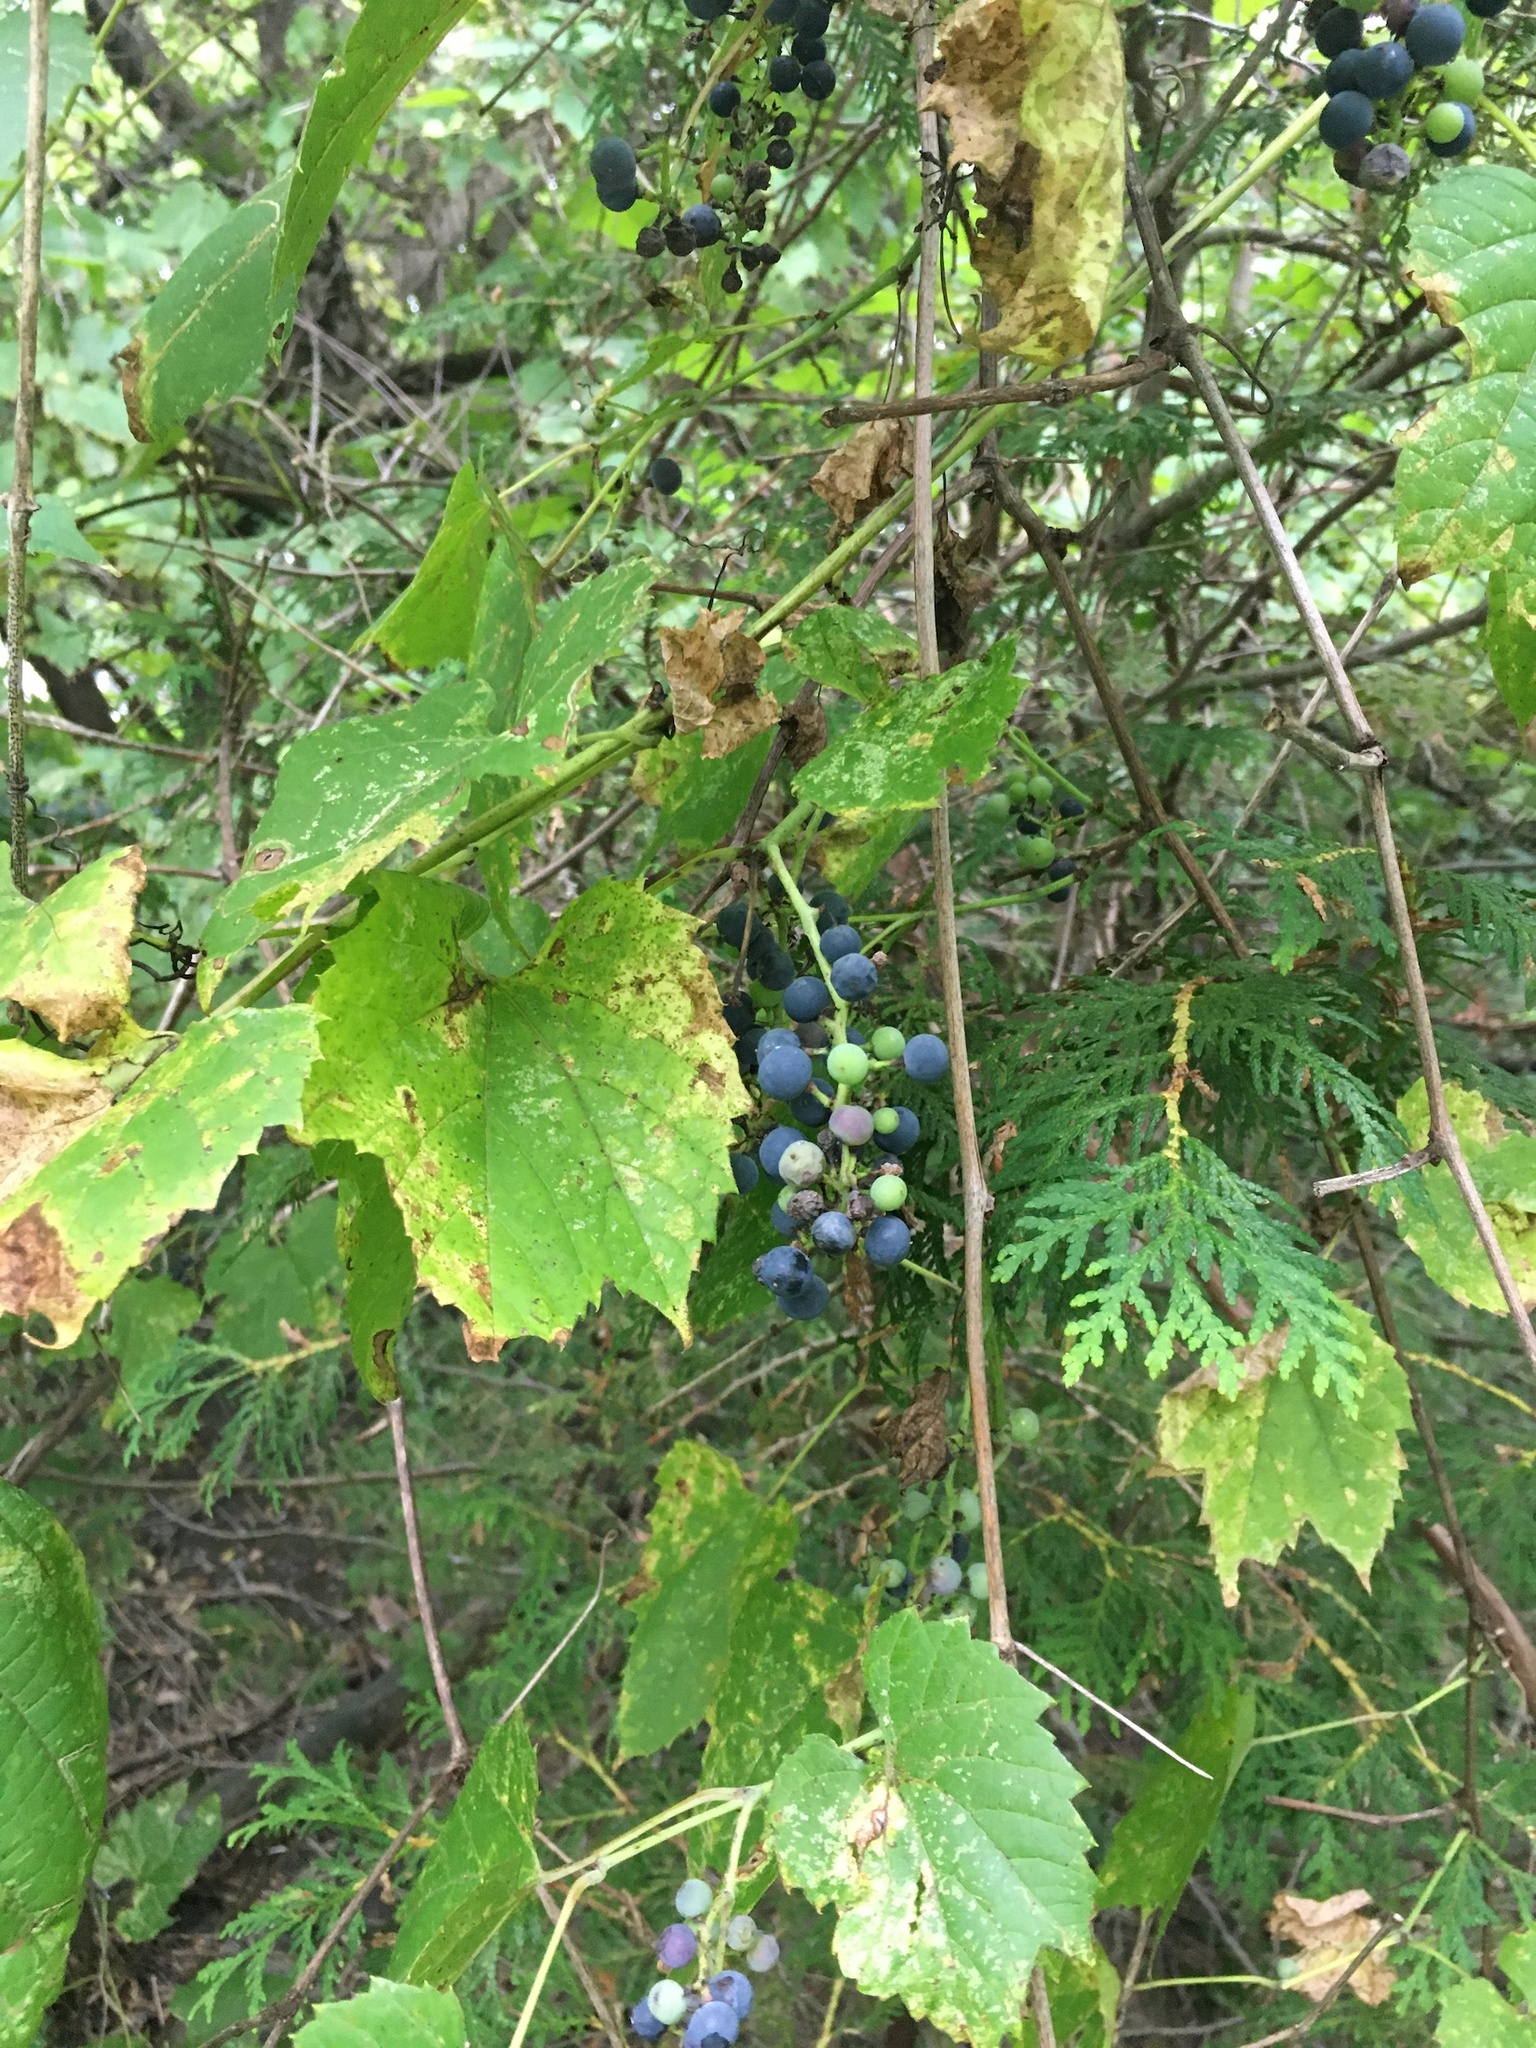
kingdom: Plantae
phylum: Tracheophyta
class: Magnoliopsida
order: Vitales
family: Vitaceae
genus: Vitis
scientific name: Vitis riparia
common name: Frost grape
